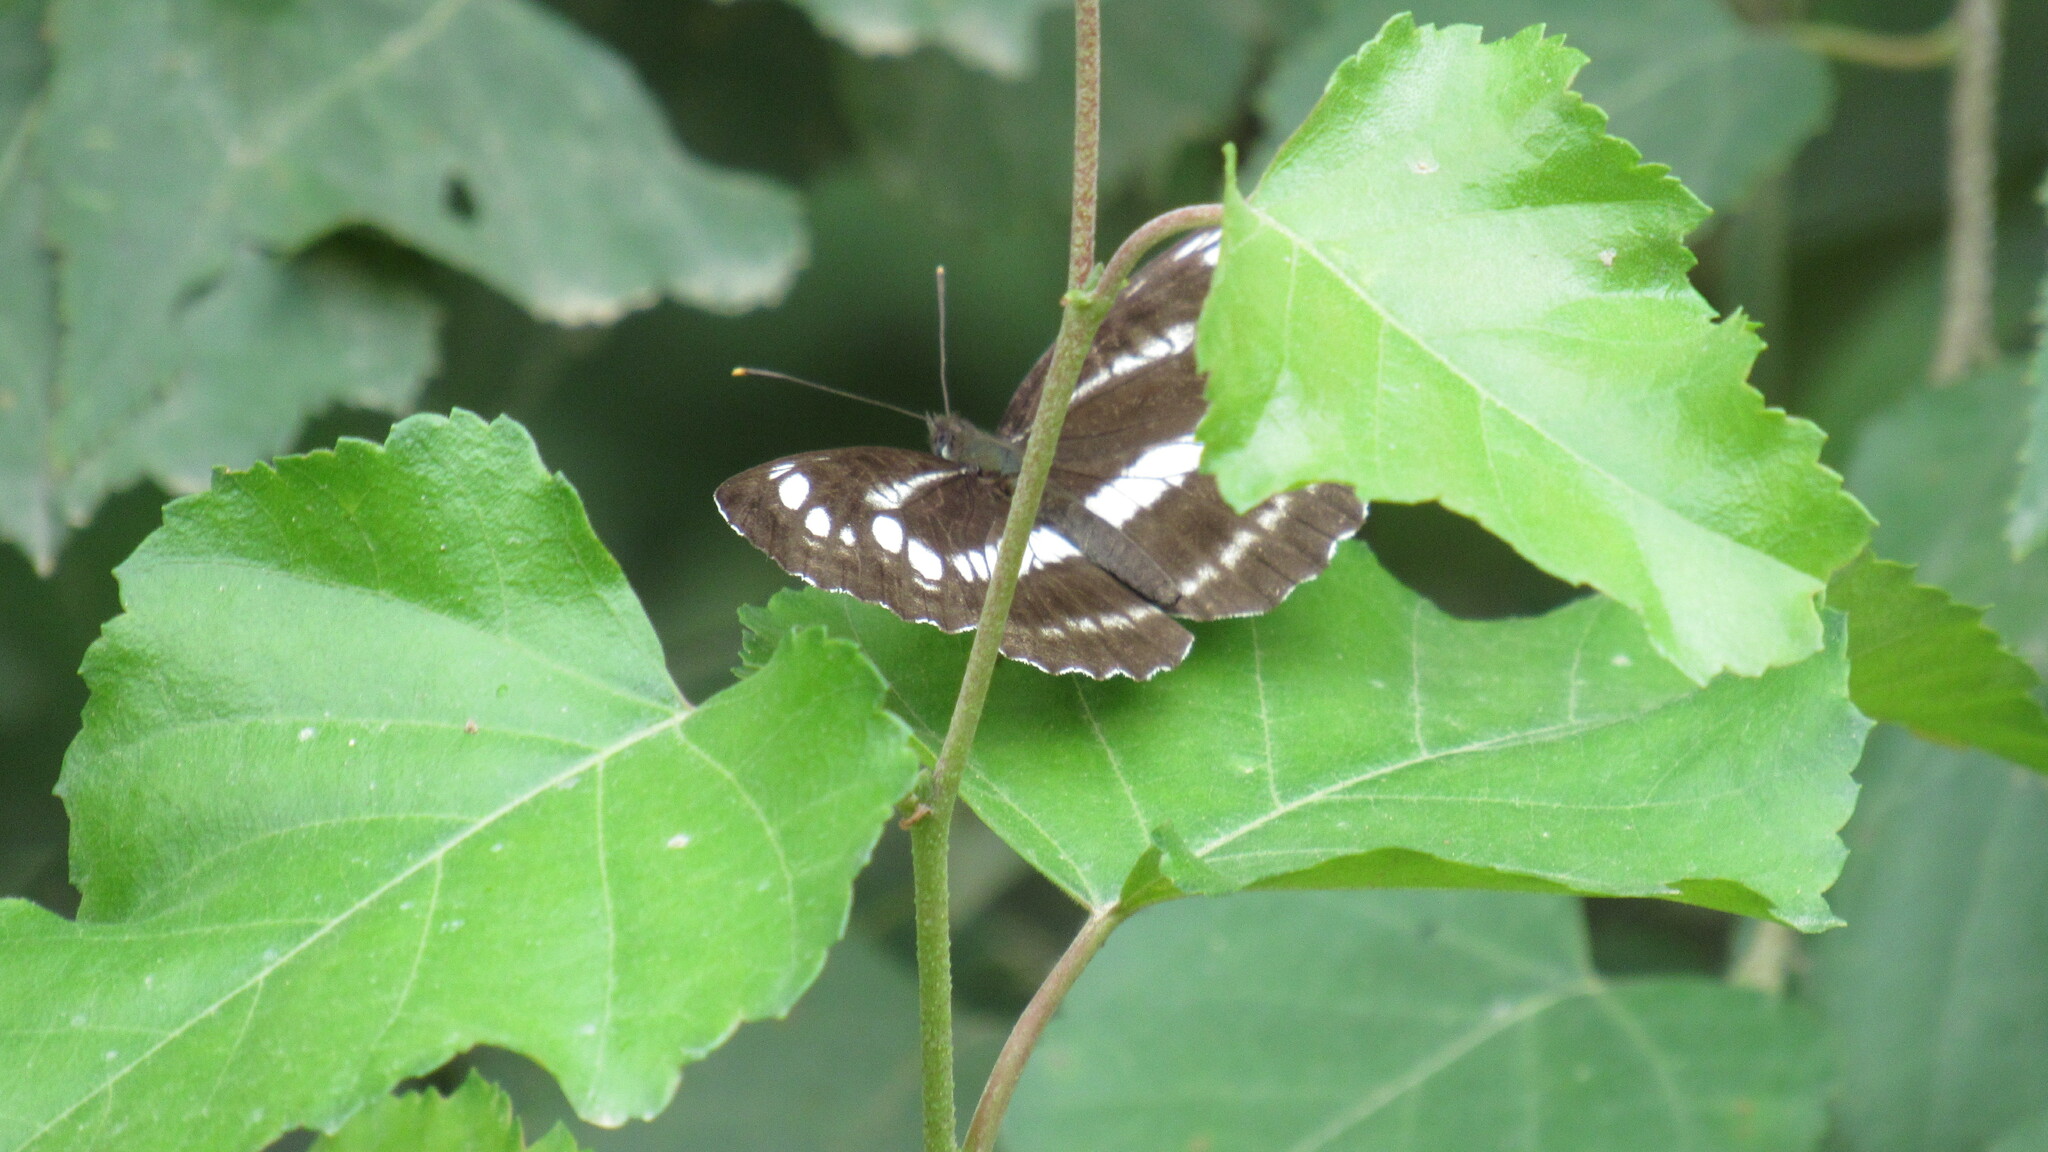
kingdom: Animalia
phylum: Arthropoda
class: Insecta
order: Lepidoptera
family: Nymphalidae
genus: Neptis
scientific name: Neptis pryeri
